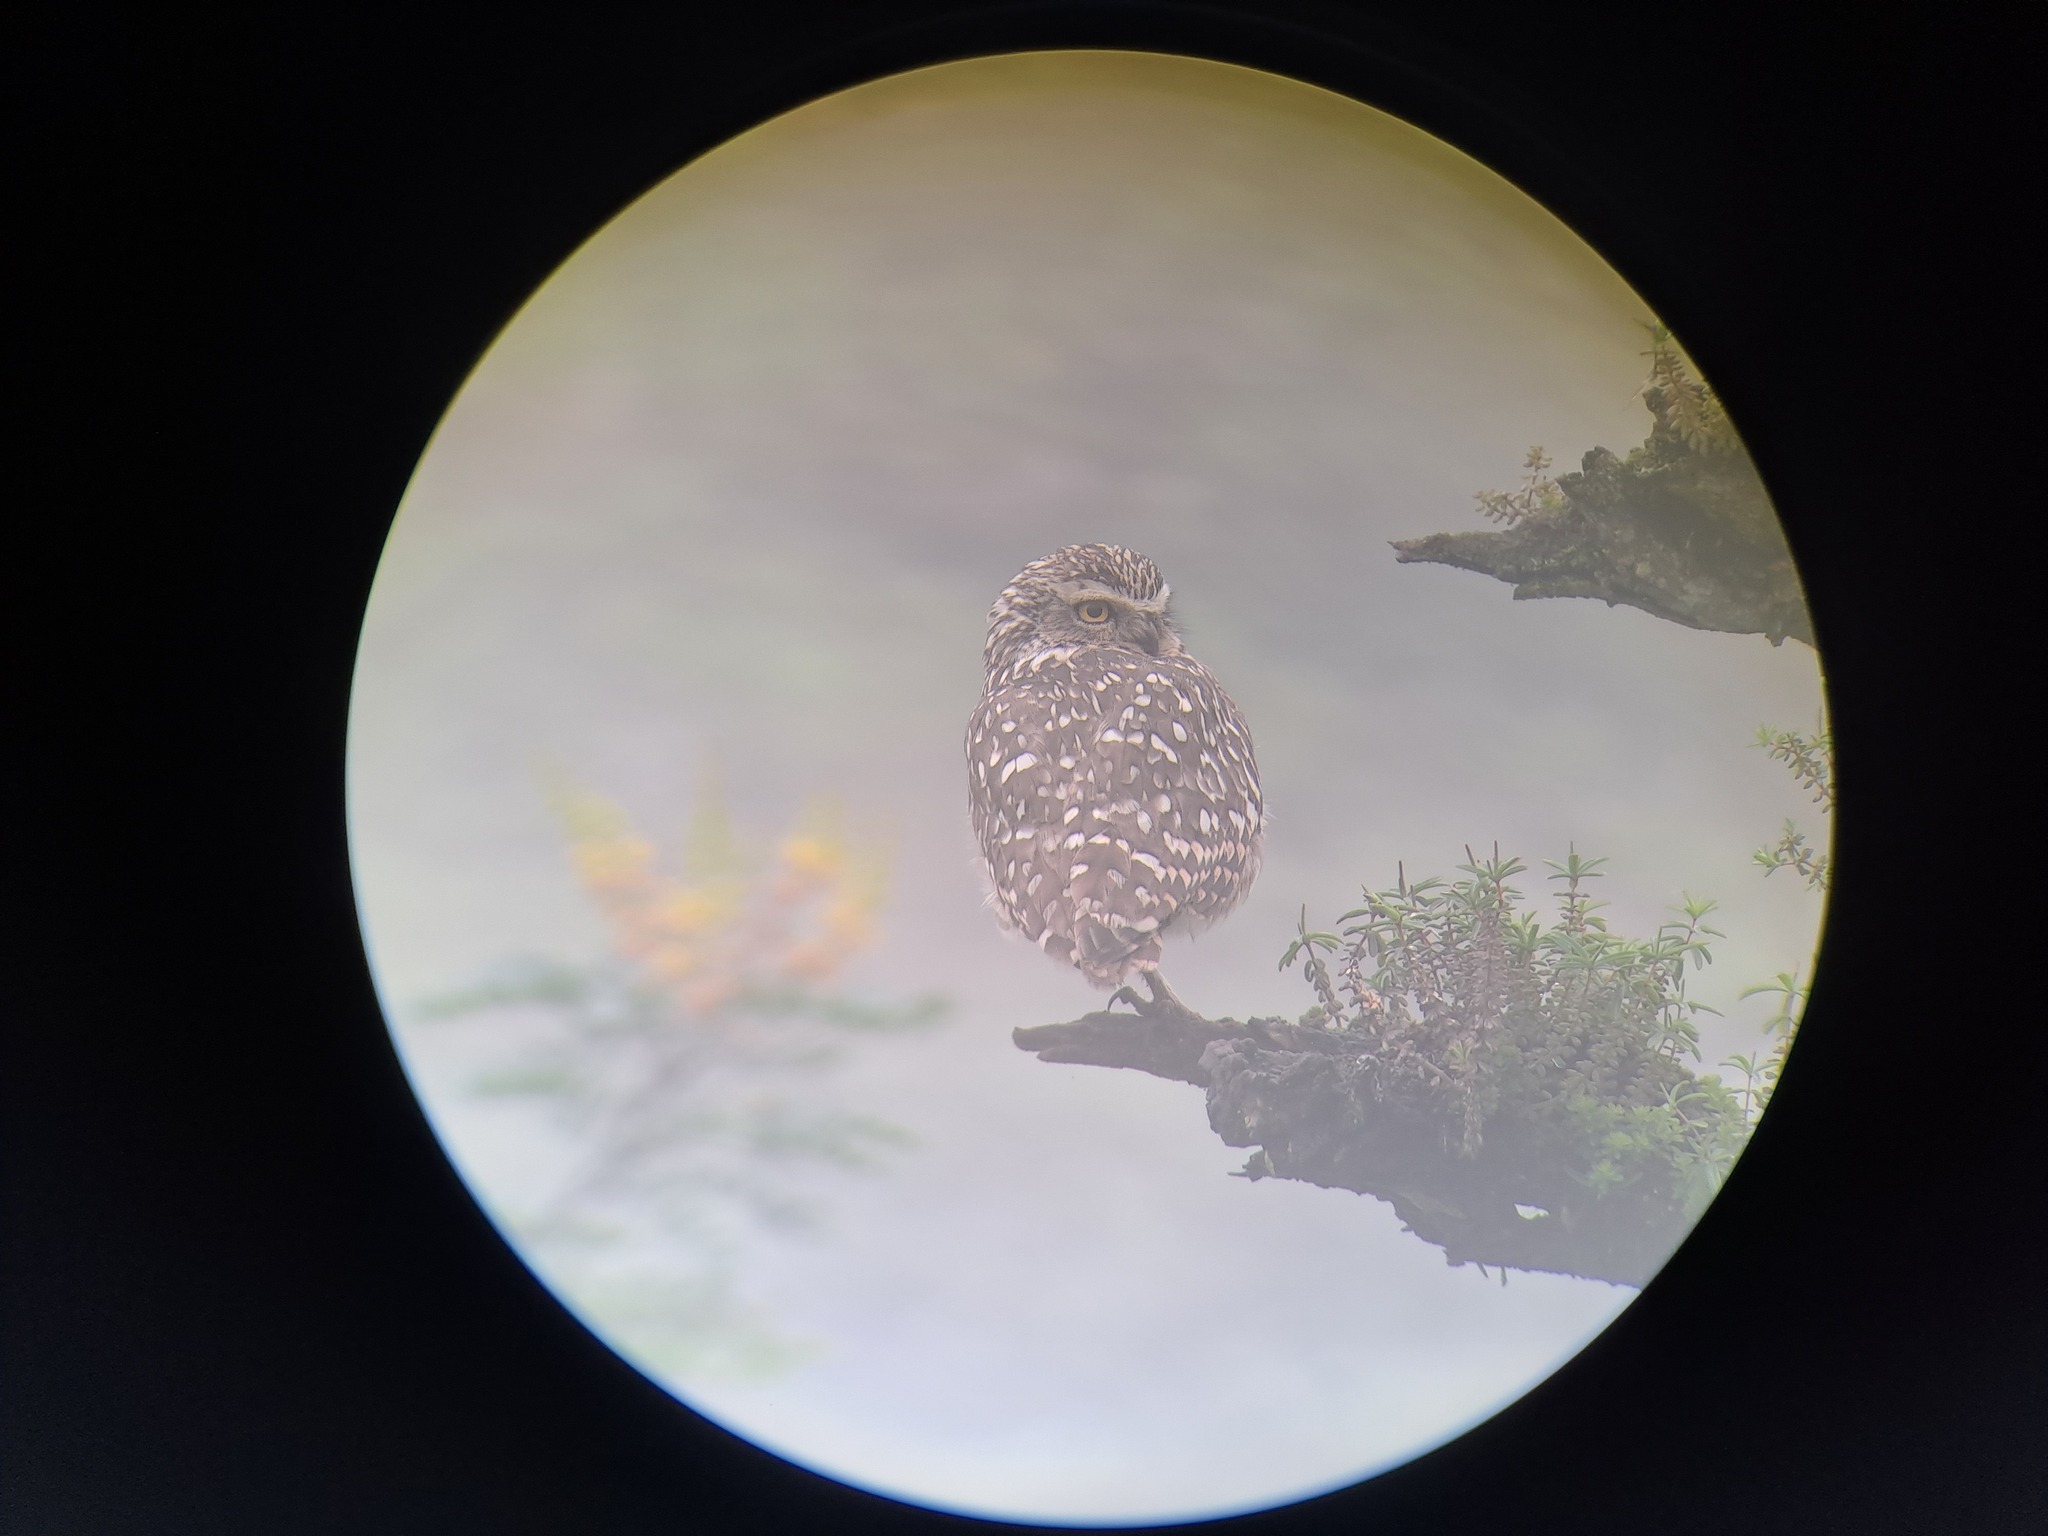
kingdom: Animalia
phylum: Chordata
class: Aves
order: Strigiformes
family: Strigidae
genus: Athene
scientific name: Athene cunicularia
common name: Burrowing owl
